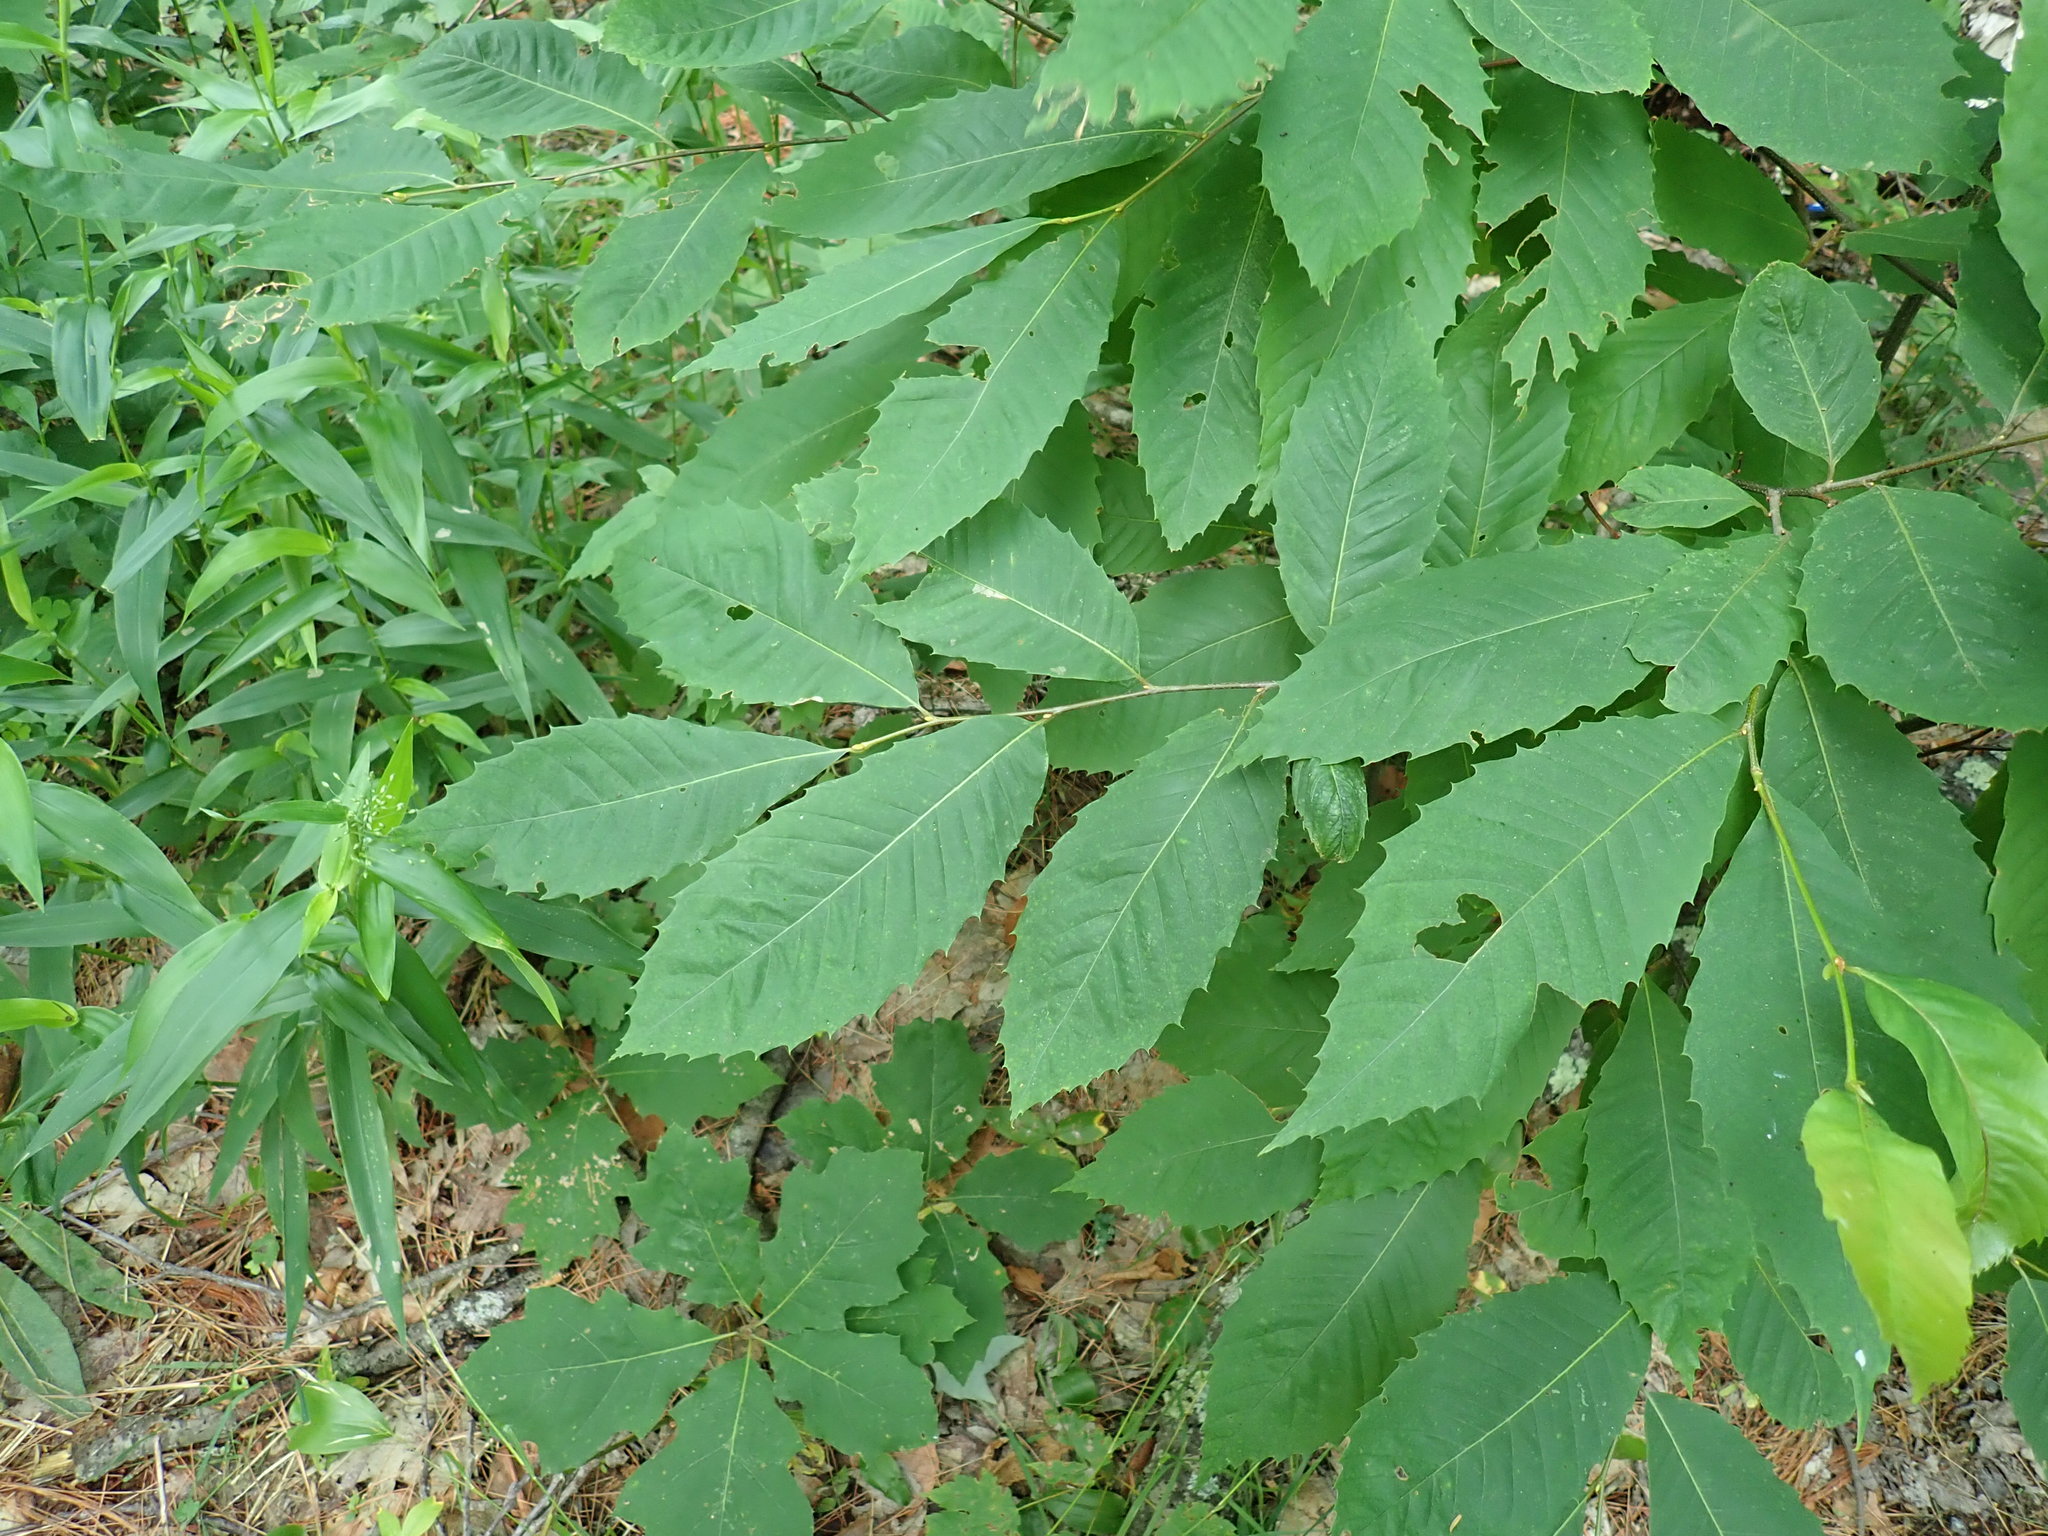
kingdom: Plantae
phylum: Tracheophyta
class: Magnoliopsida
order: Fagales
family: Fagaceae
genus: Castanea
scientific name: Castanea dentata
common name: American chestnut
